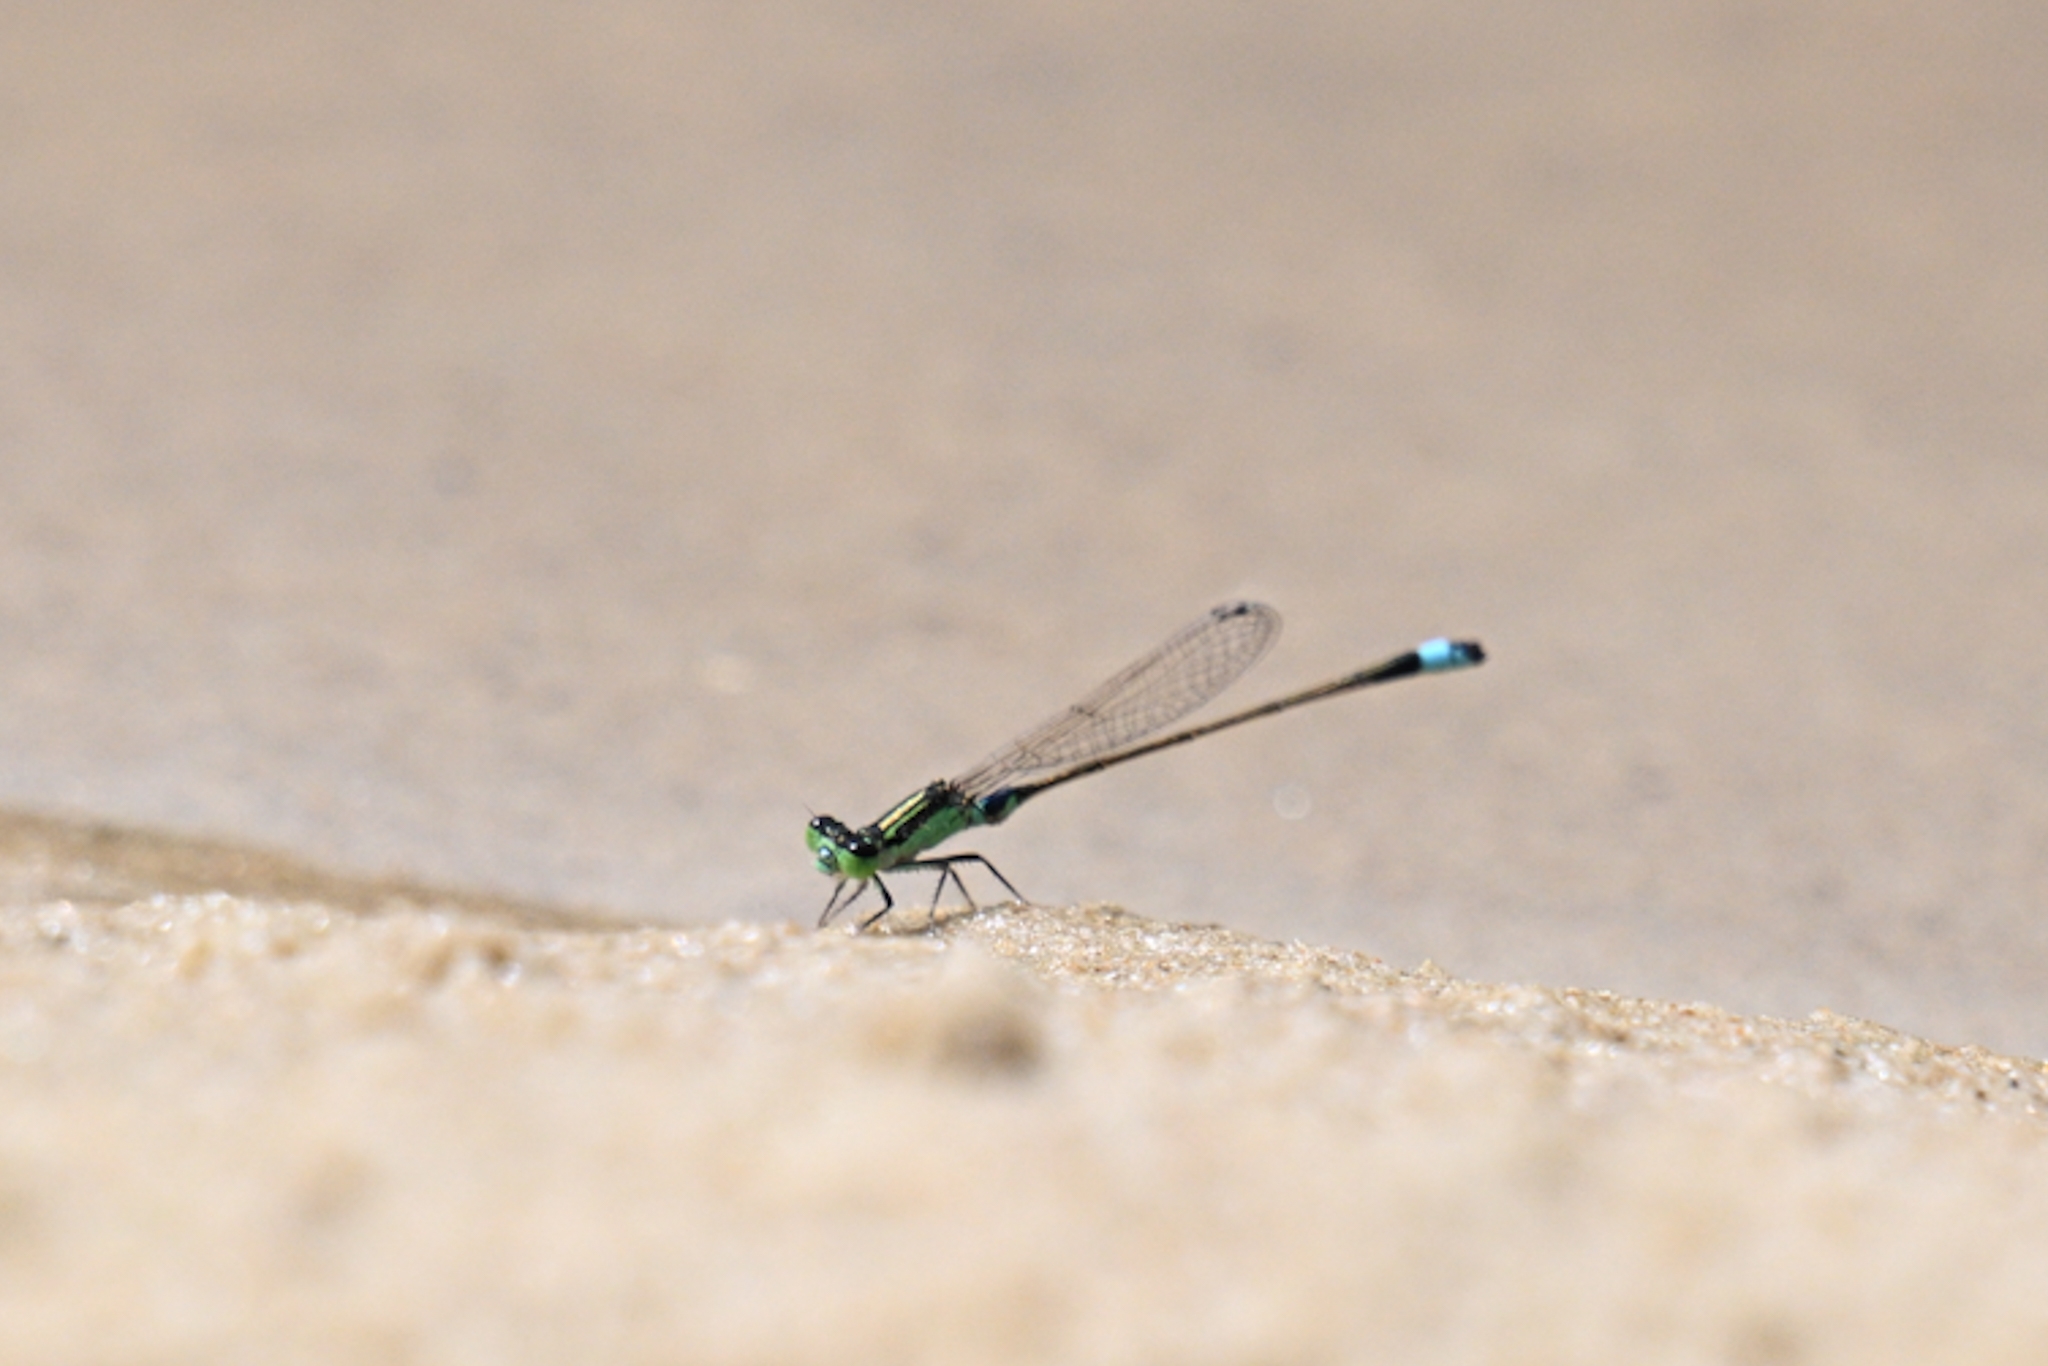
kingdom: Animalia
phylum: Arthropoda
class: Insecta
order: Odonata
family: Coenagrionidae
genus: Ischnura
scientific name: Ischnura senegalensis
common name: Tropical bluetail
